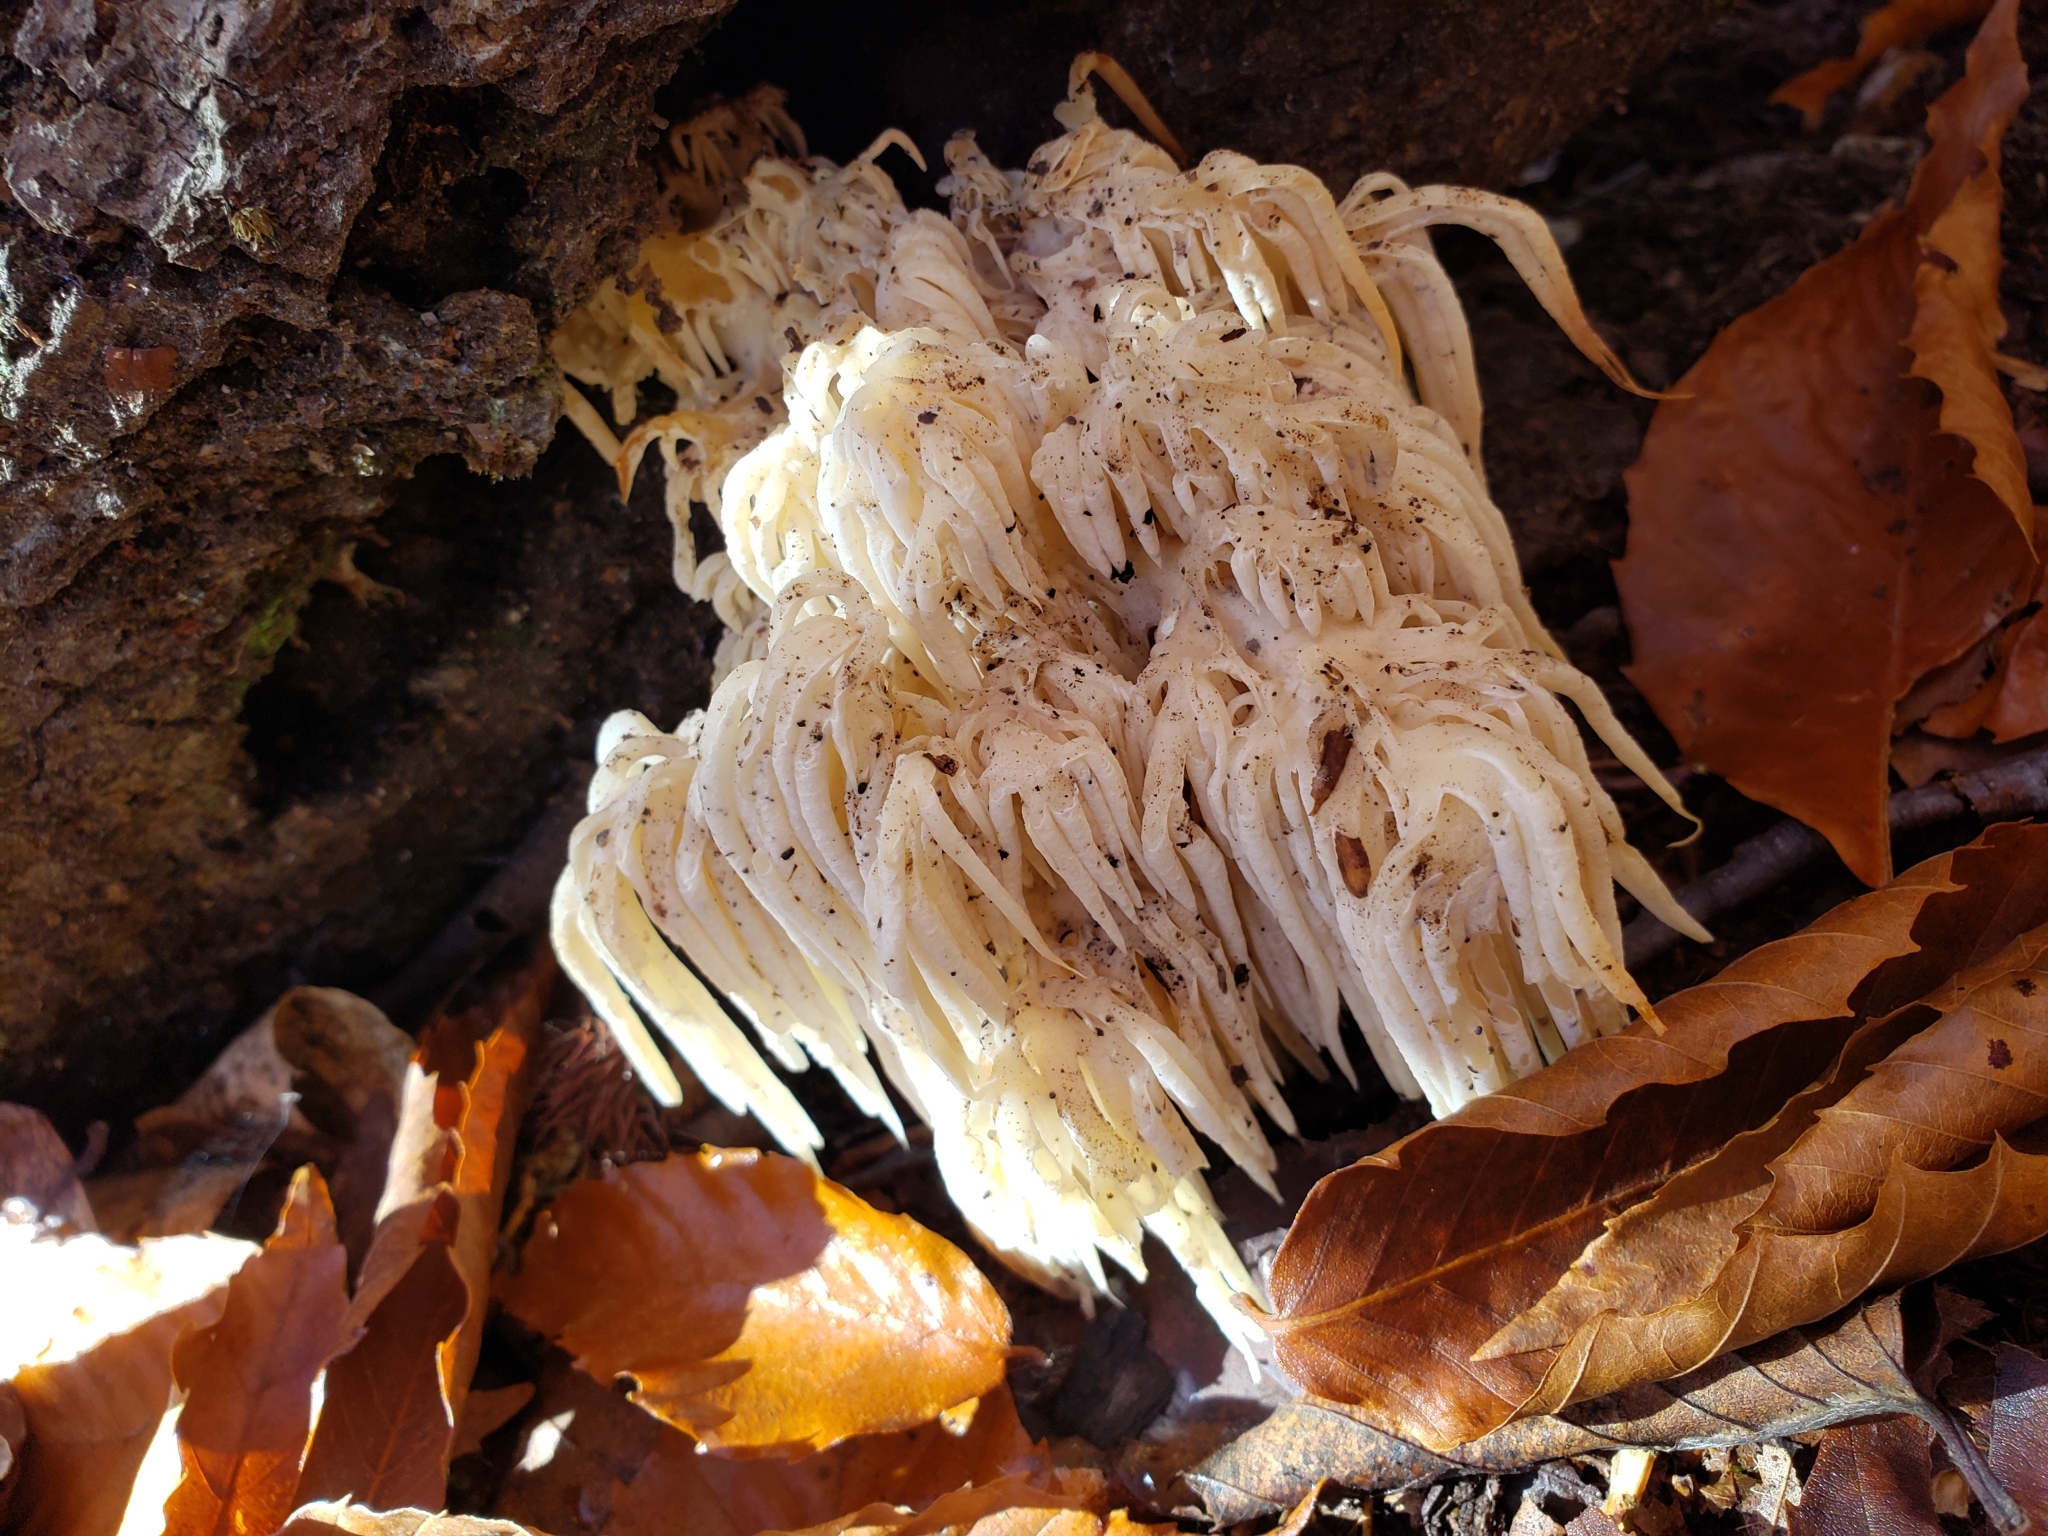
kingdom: Fungi
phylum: Basidiomycota
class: Agaricomycetes
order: Russulales
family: Hericiaceae
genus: Hericium
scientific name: Hericium americanum
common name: Bear's head tooth
